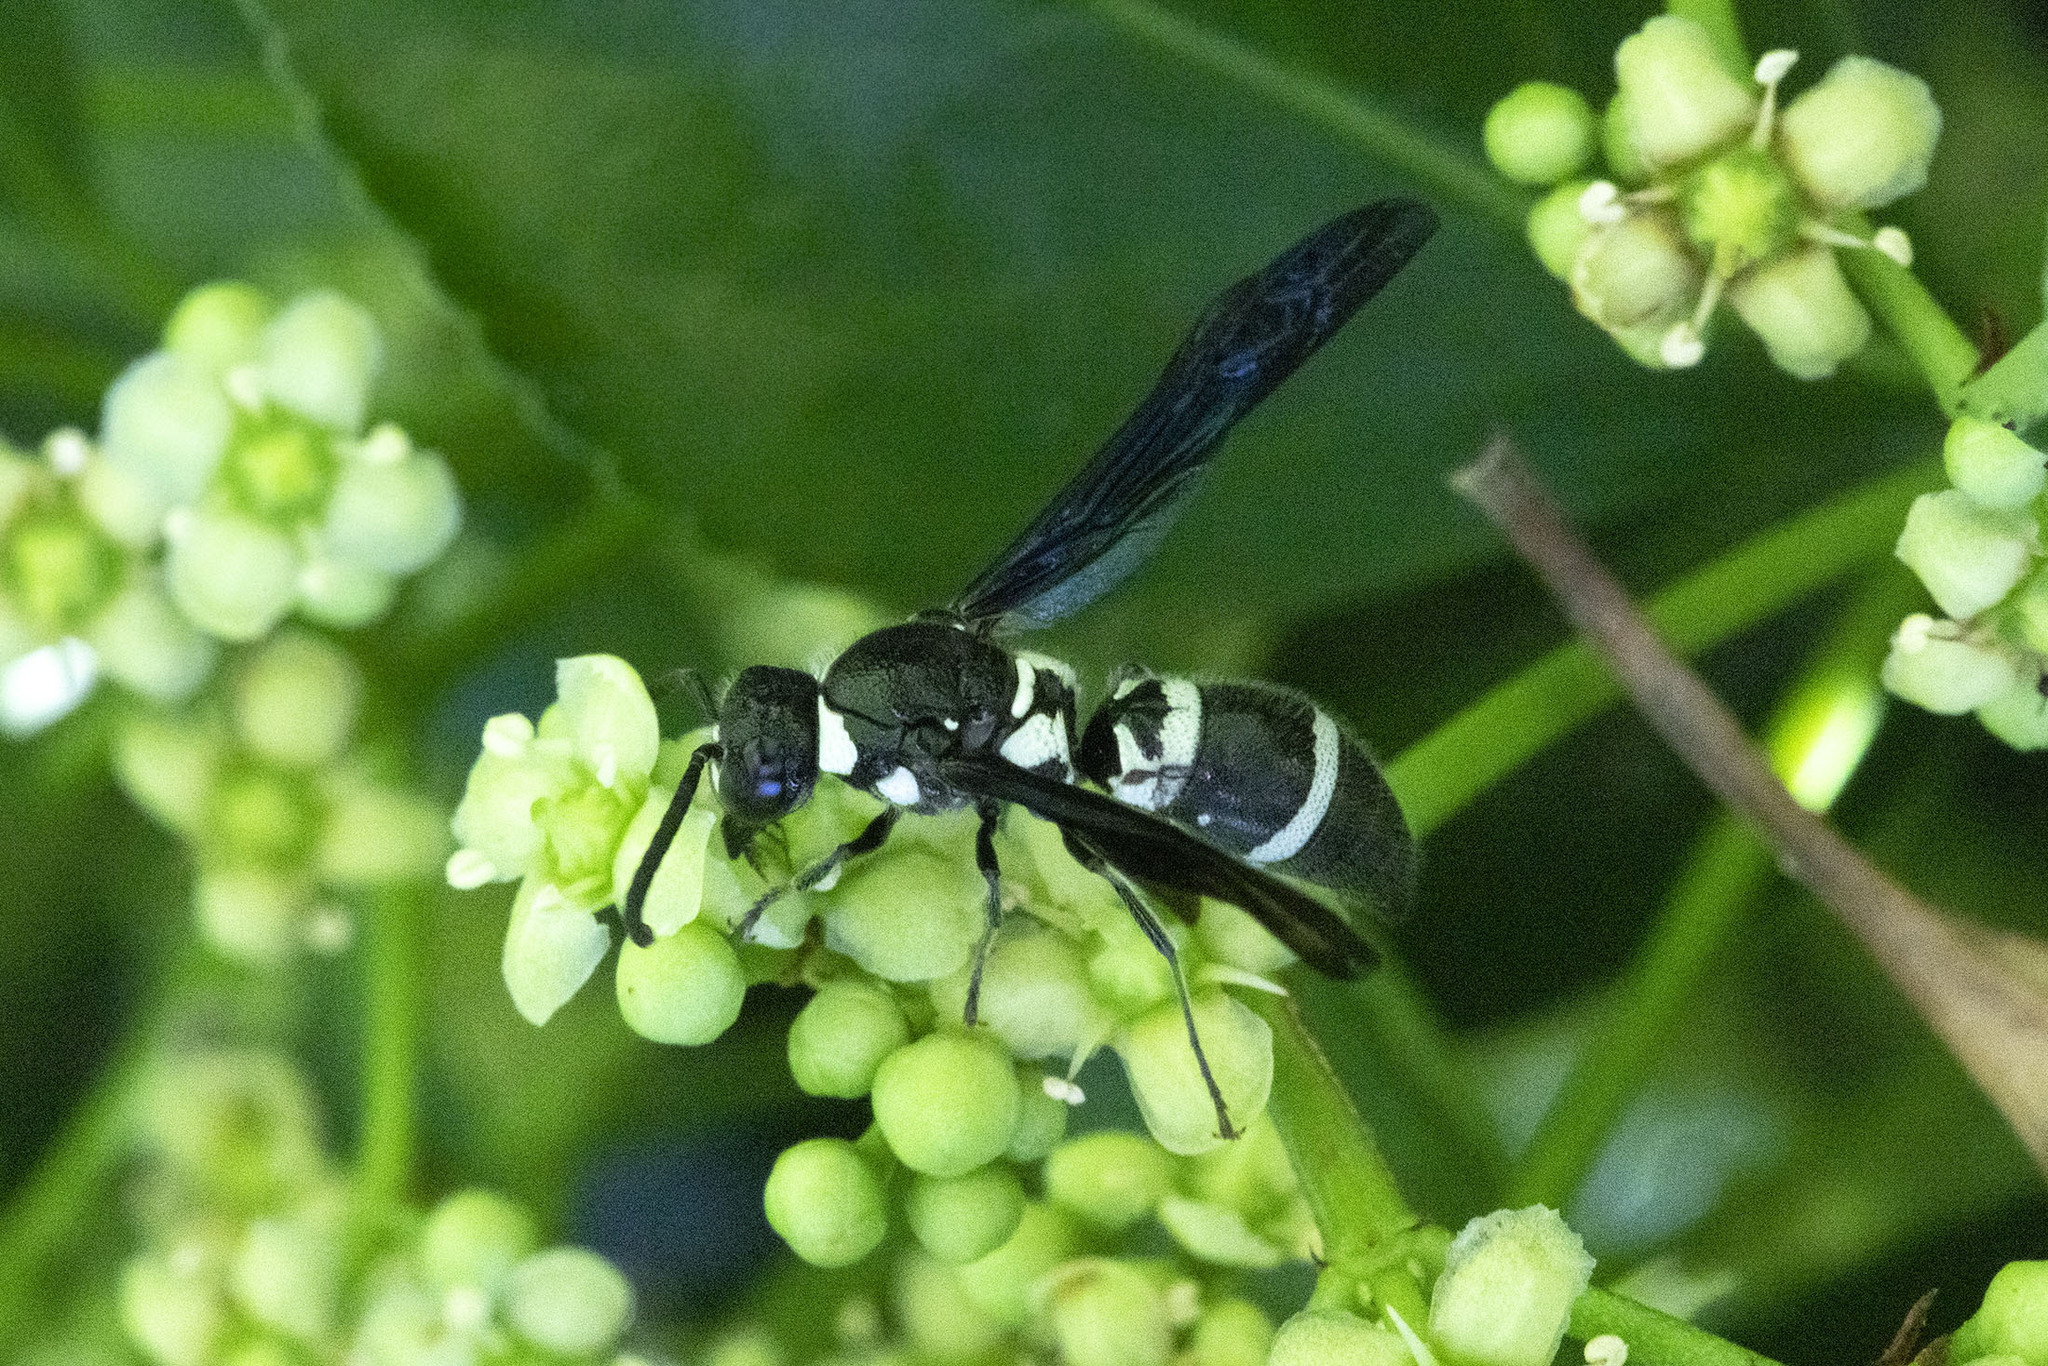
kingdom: Animalia
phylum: Arthropoda
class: Insecta
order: Hymenoptera
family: Eumenidae
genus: Pseudodynerus
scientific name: Pseudodynerus quadrisectus
